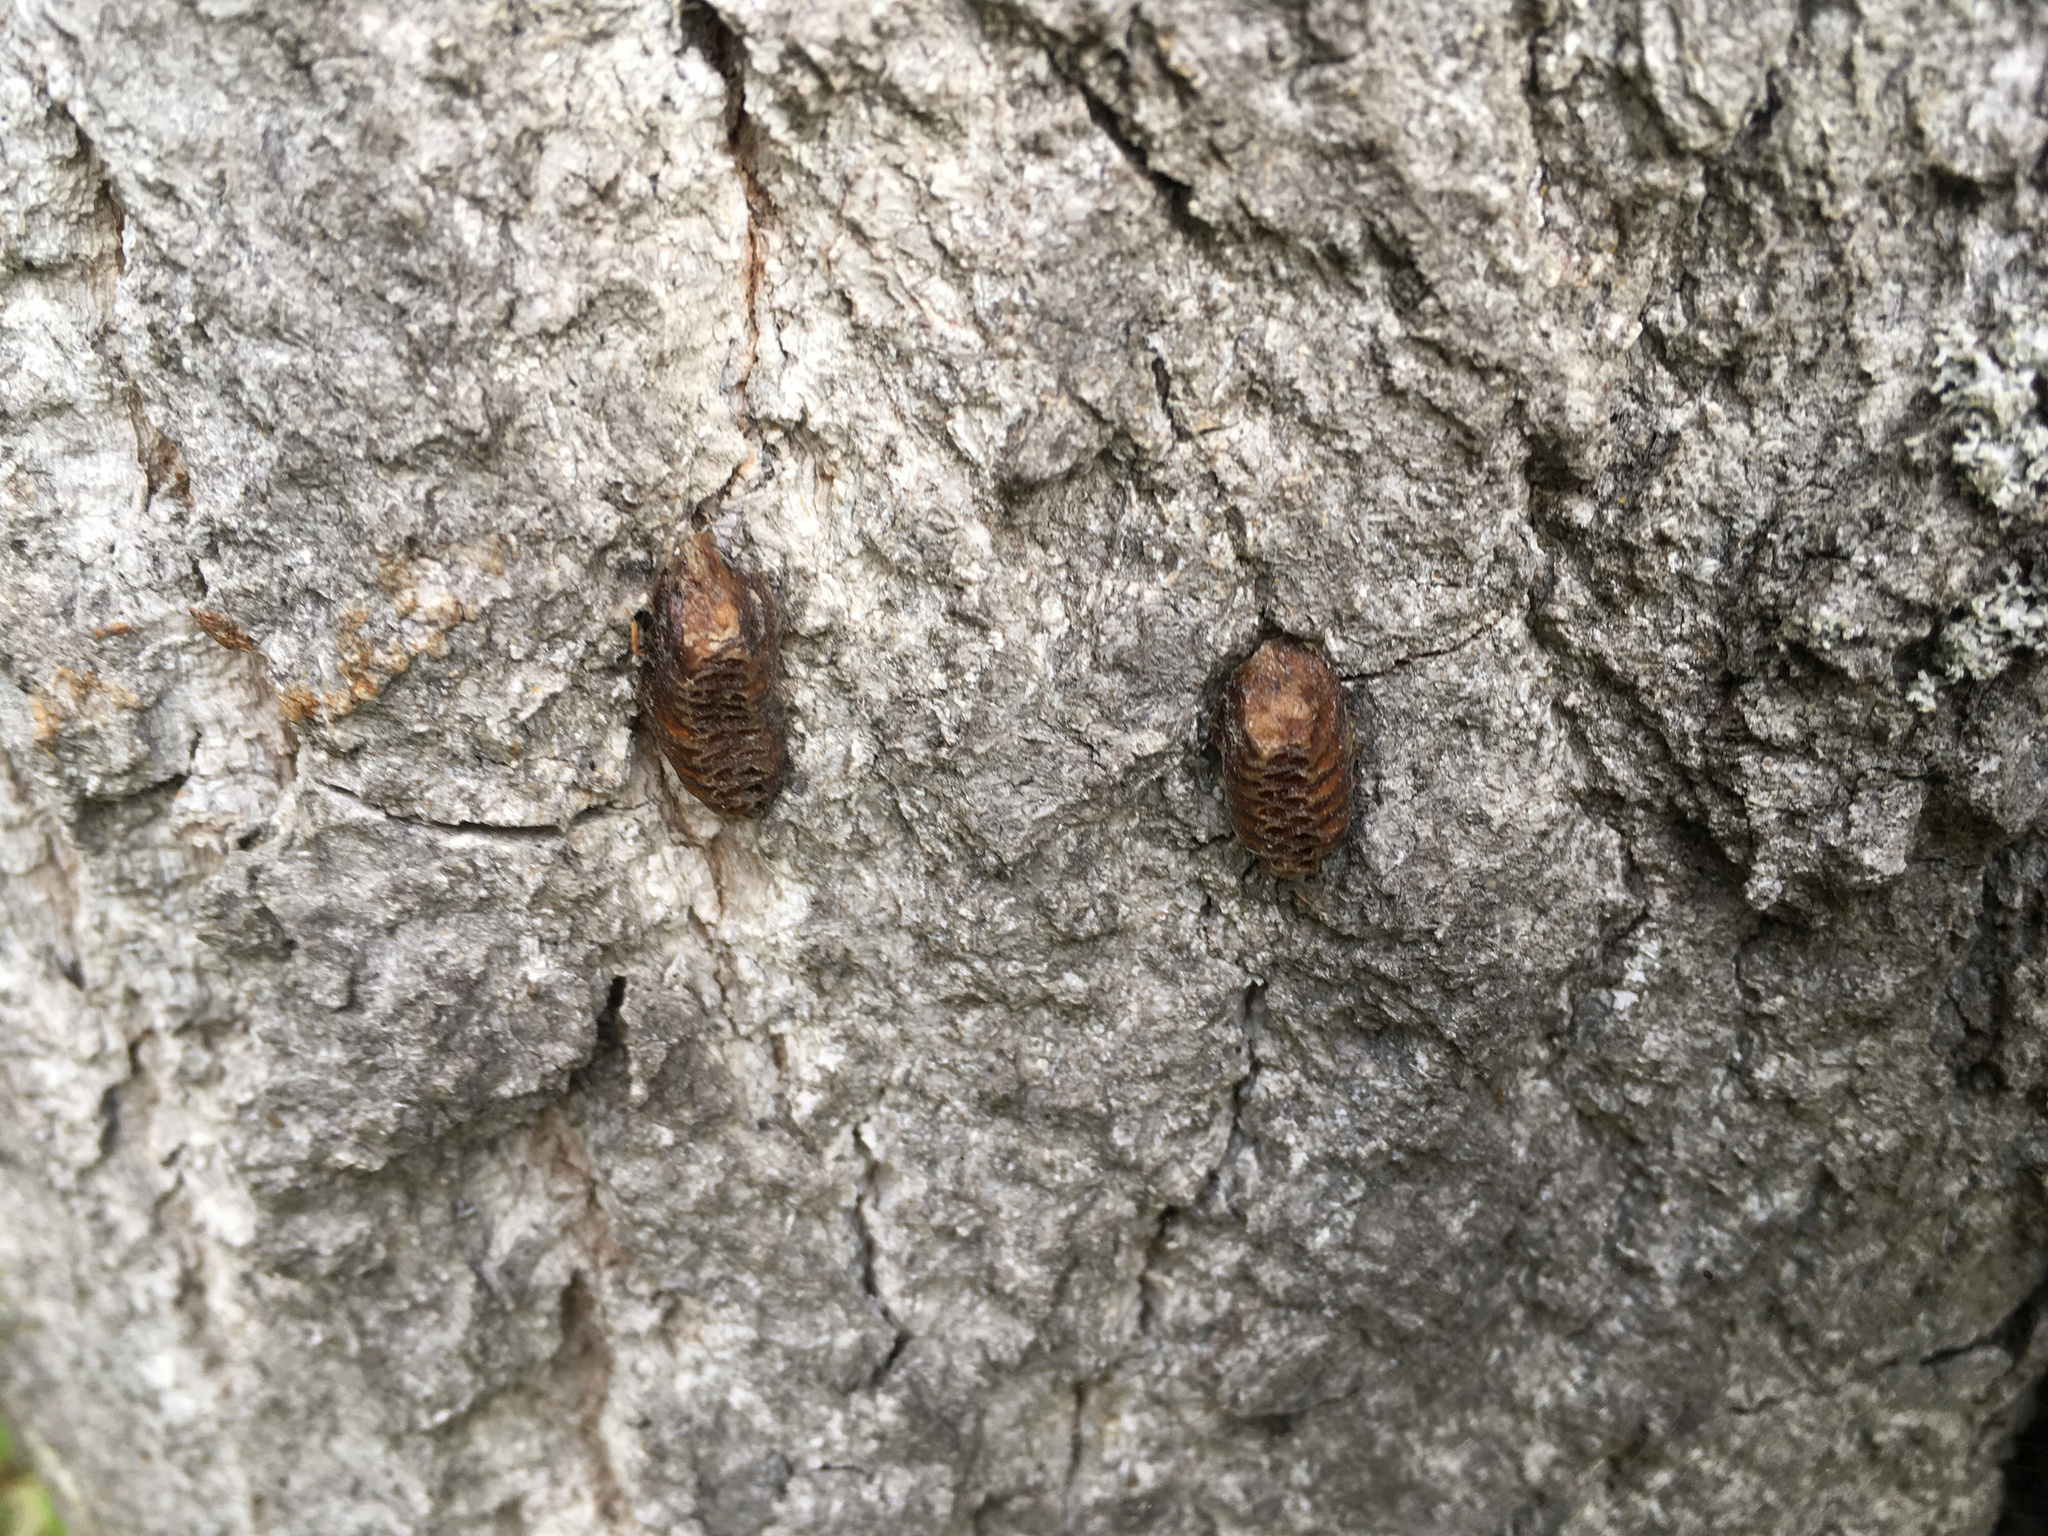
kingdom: Animalia
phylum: Arthropoda
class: Insecta
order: Mantodea
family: Mantidae
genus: Orthodera
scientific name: Orthodera novaezealandiae
